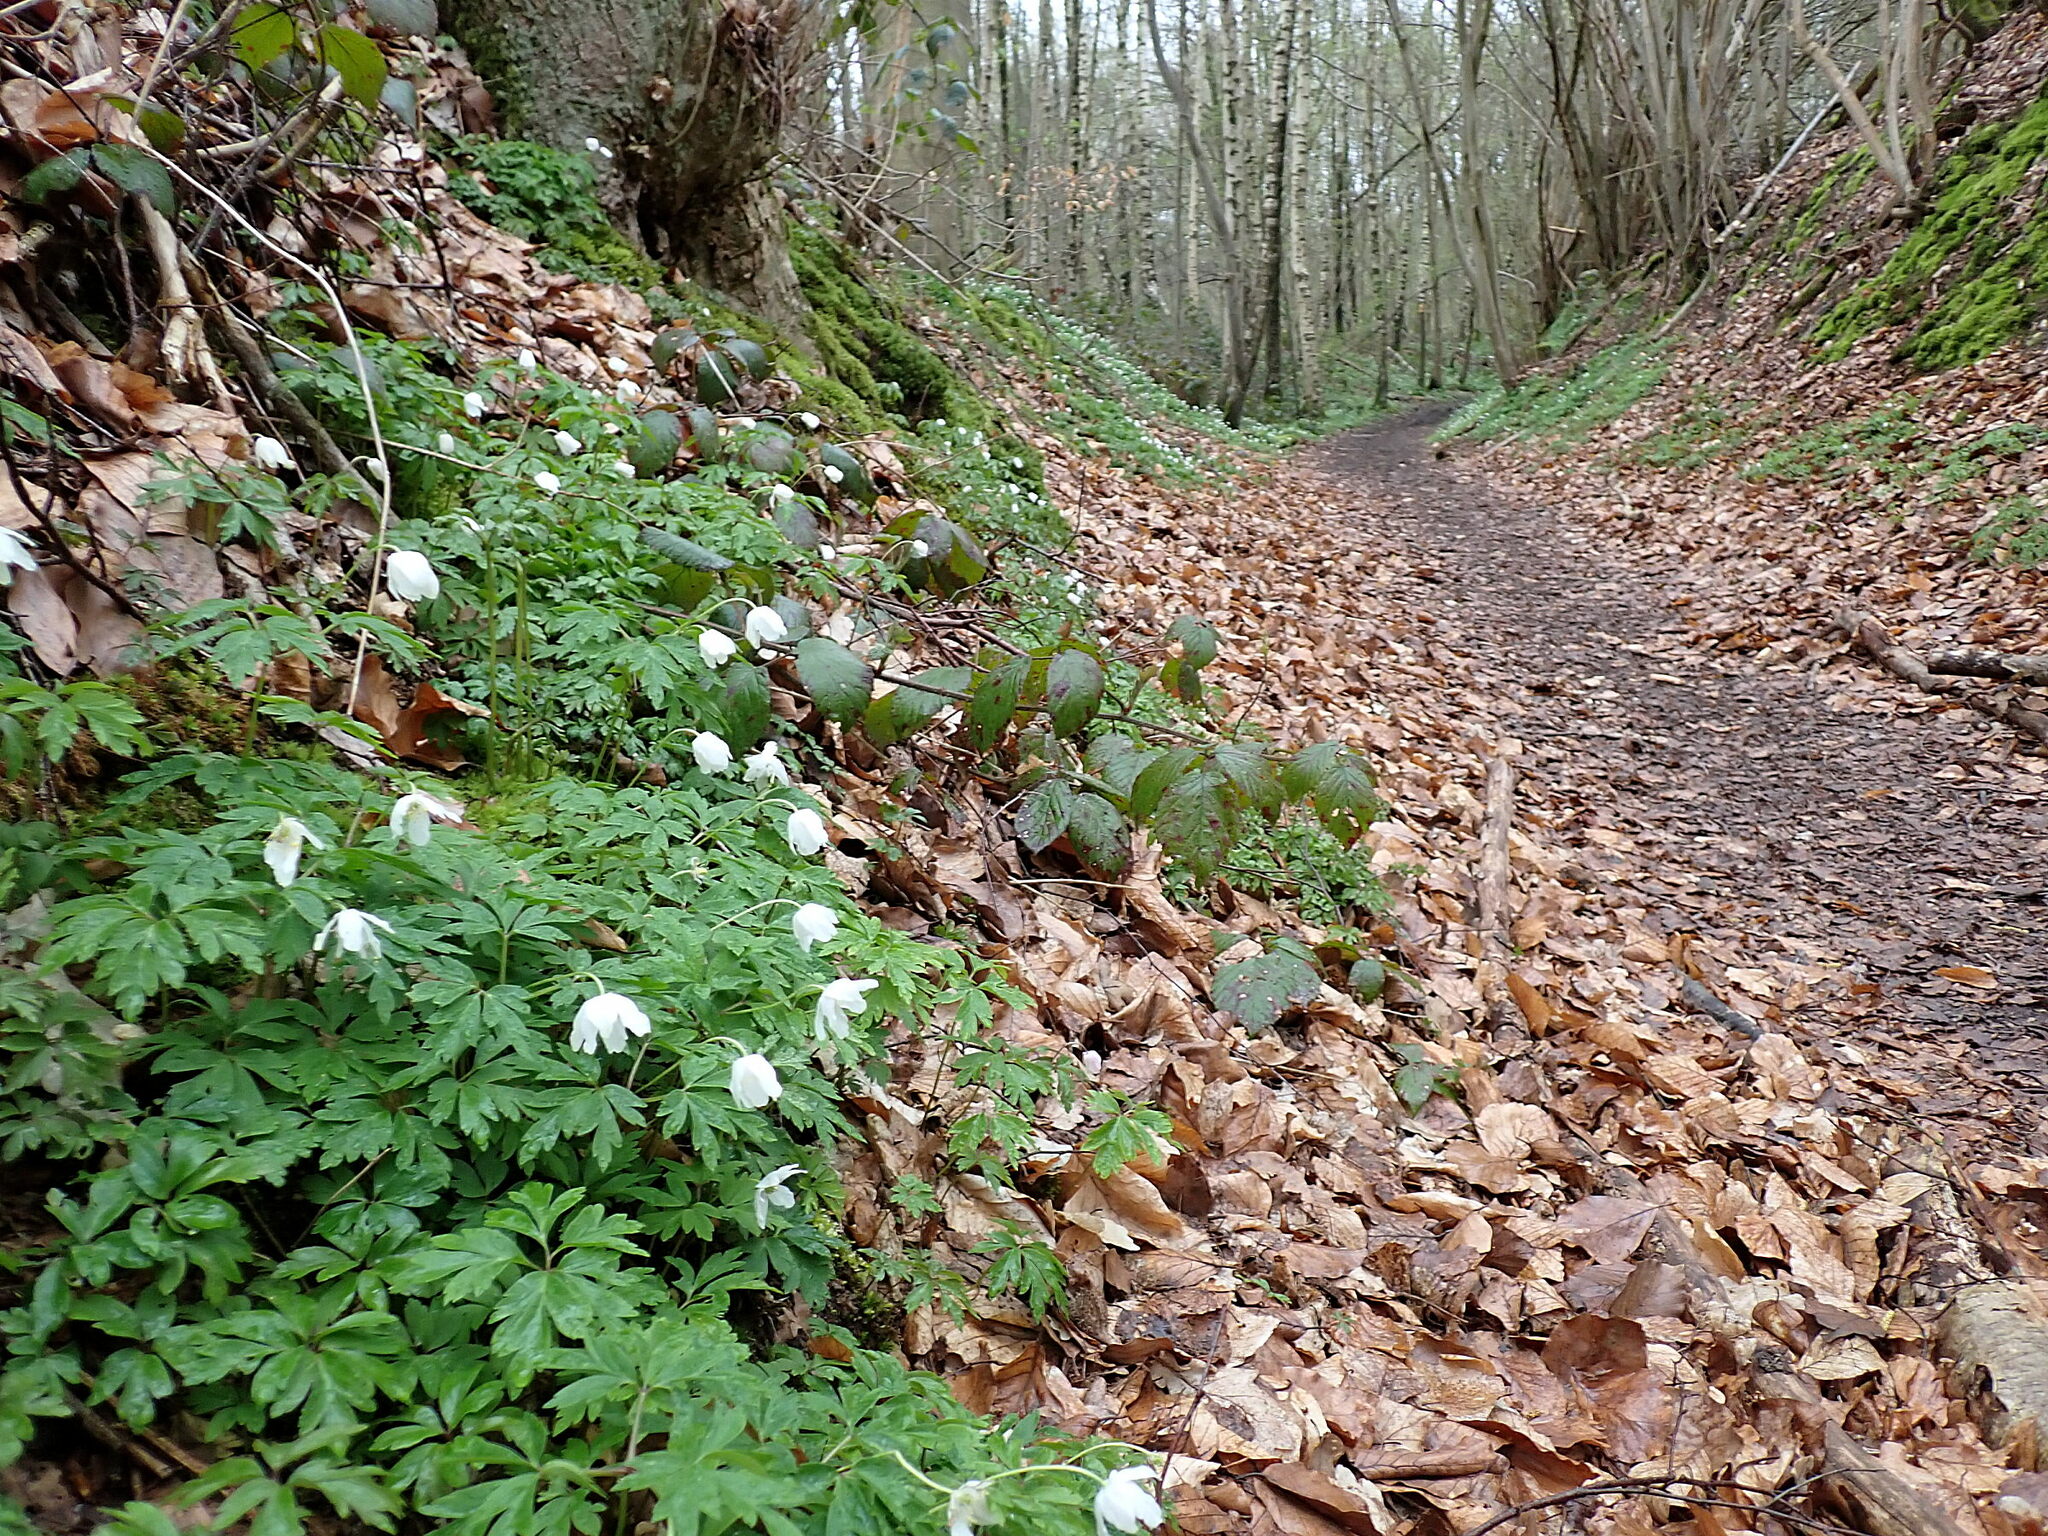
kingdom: Plantae
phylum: Tracheophyta
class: Magnoliopsida
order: Ranunculales
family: Ranunculaceae
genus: Anemone
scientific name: Anemone nemorosa
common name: Wood anemone
